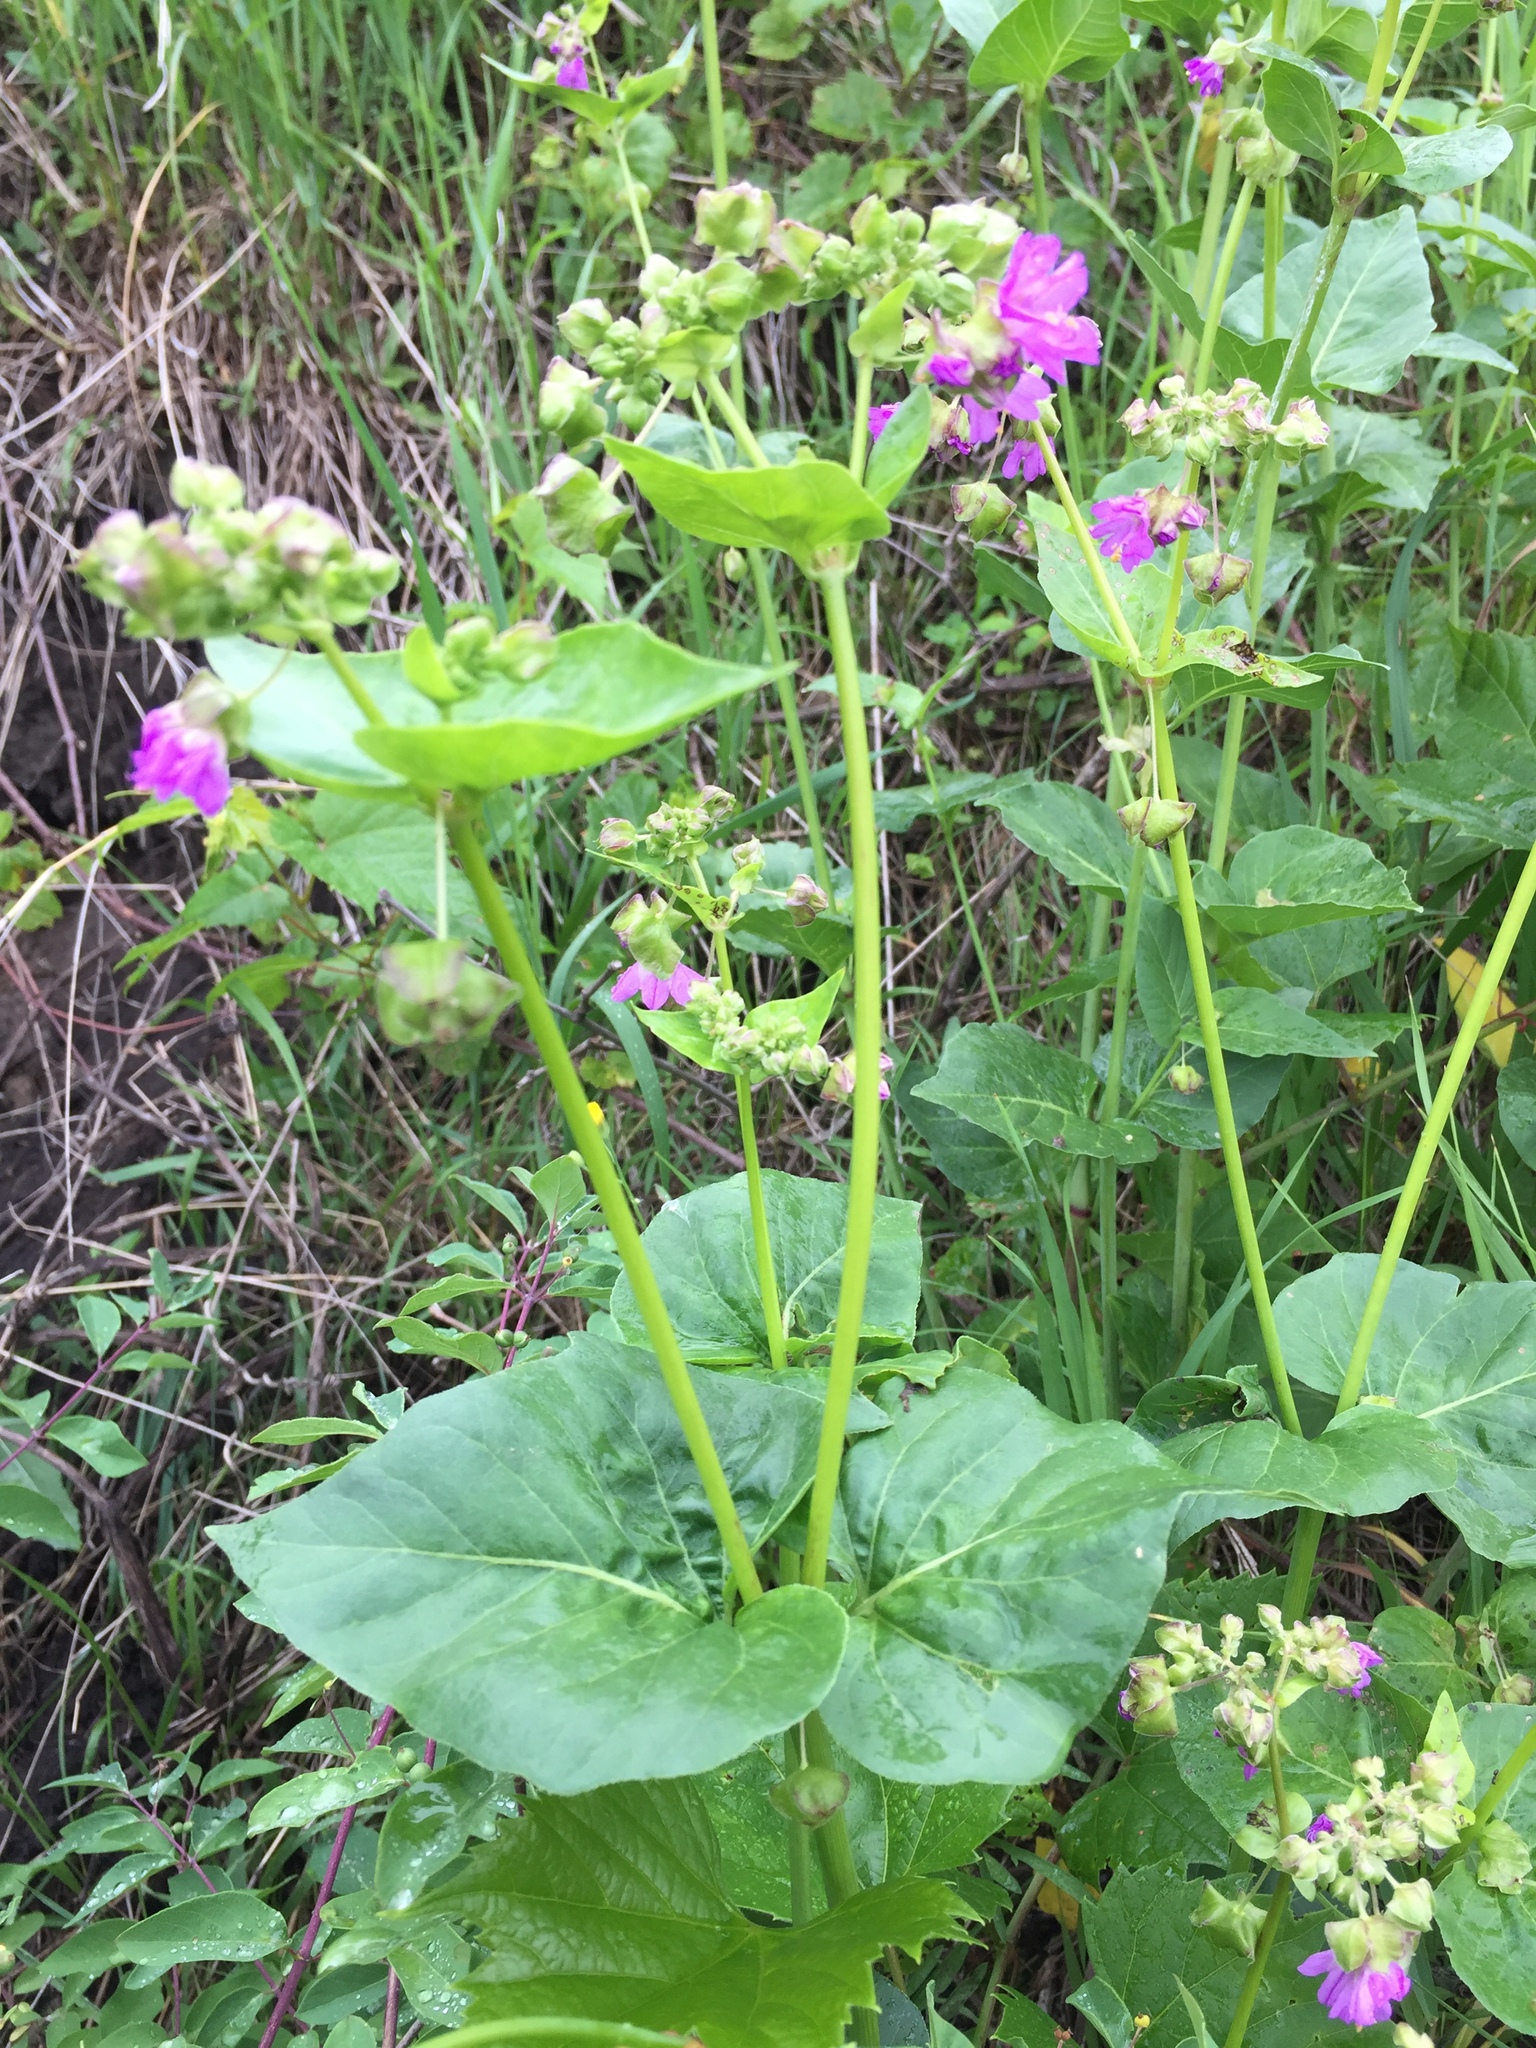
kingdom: Plantae
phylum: Tracheophyta
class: Magnoliopsida
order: Caryophyllales
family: Nyctaginaceae
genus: Mirabilis
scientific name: Mirabilis nyctaginea
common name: Umbrella wort
